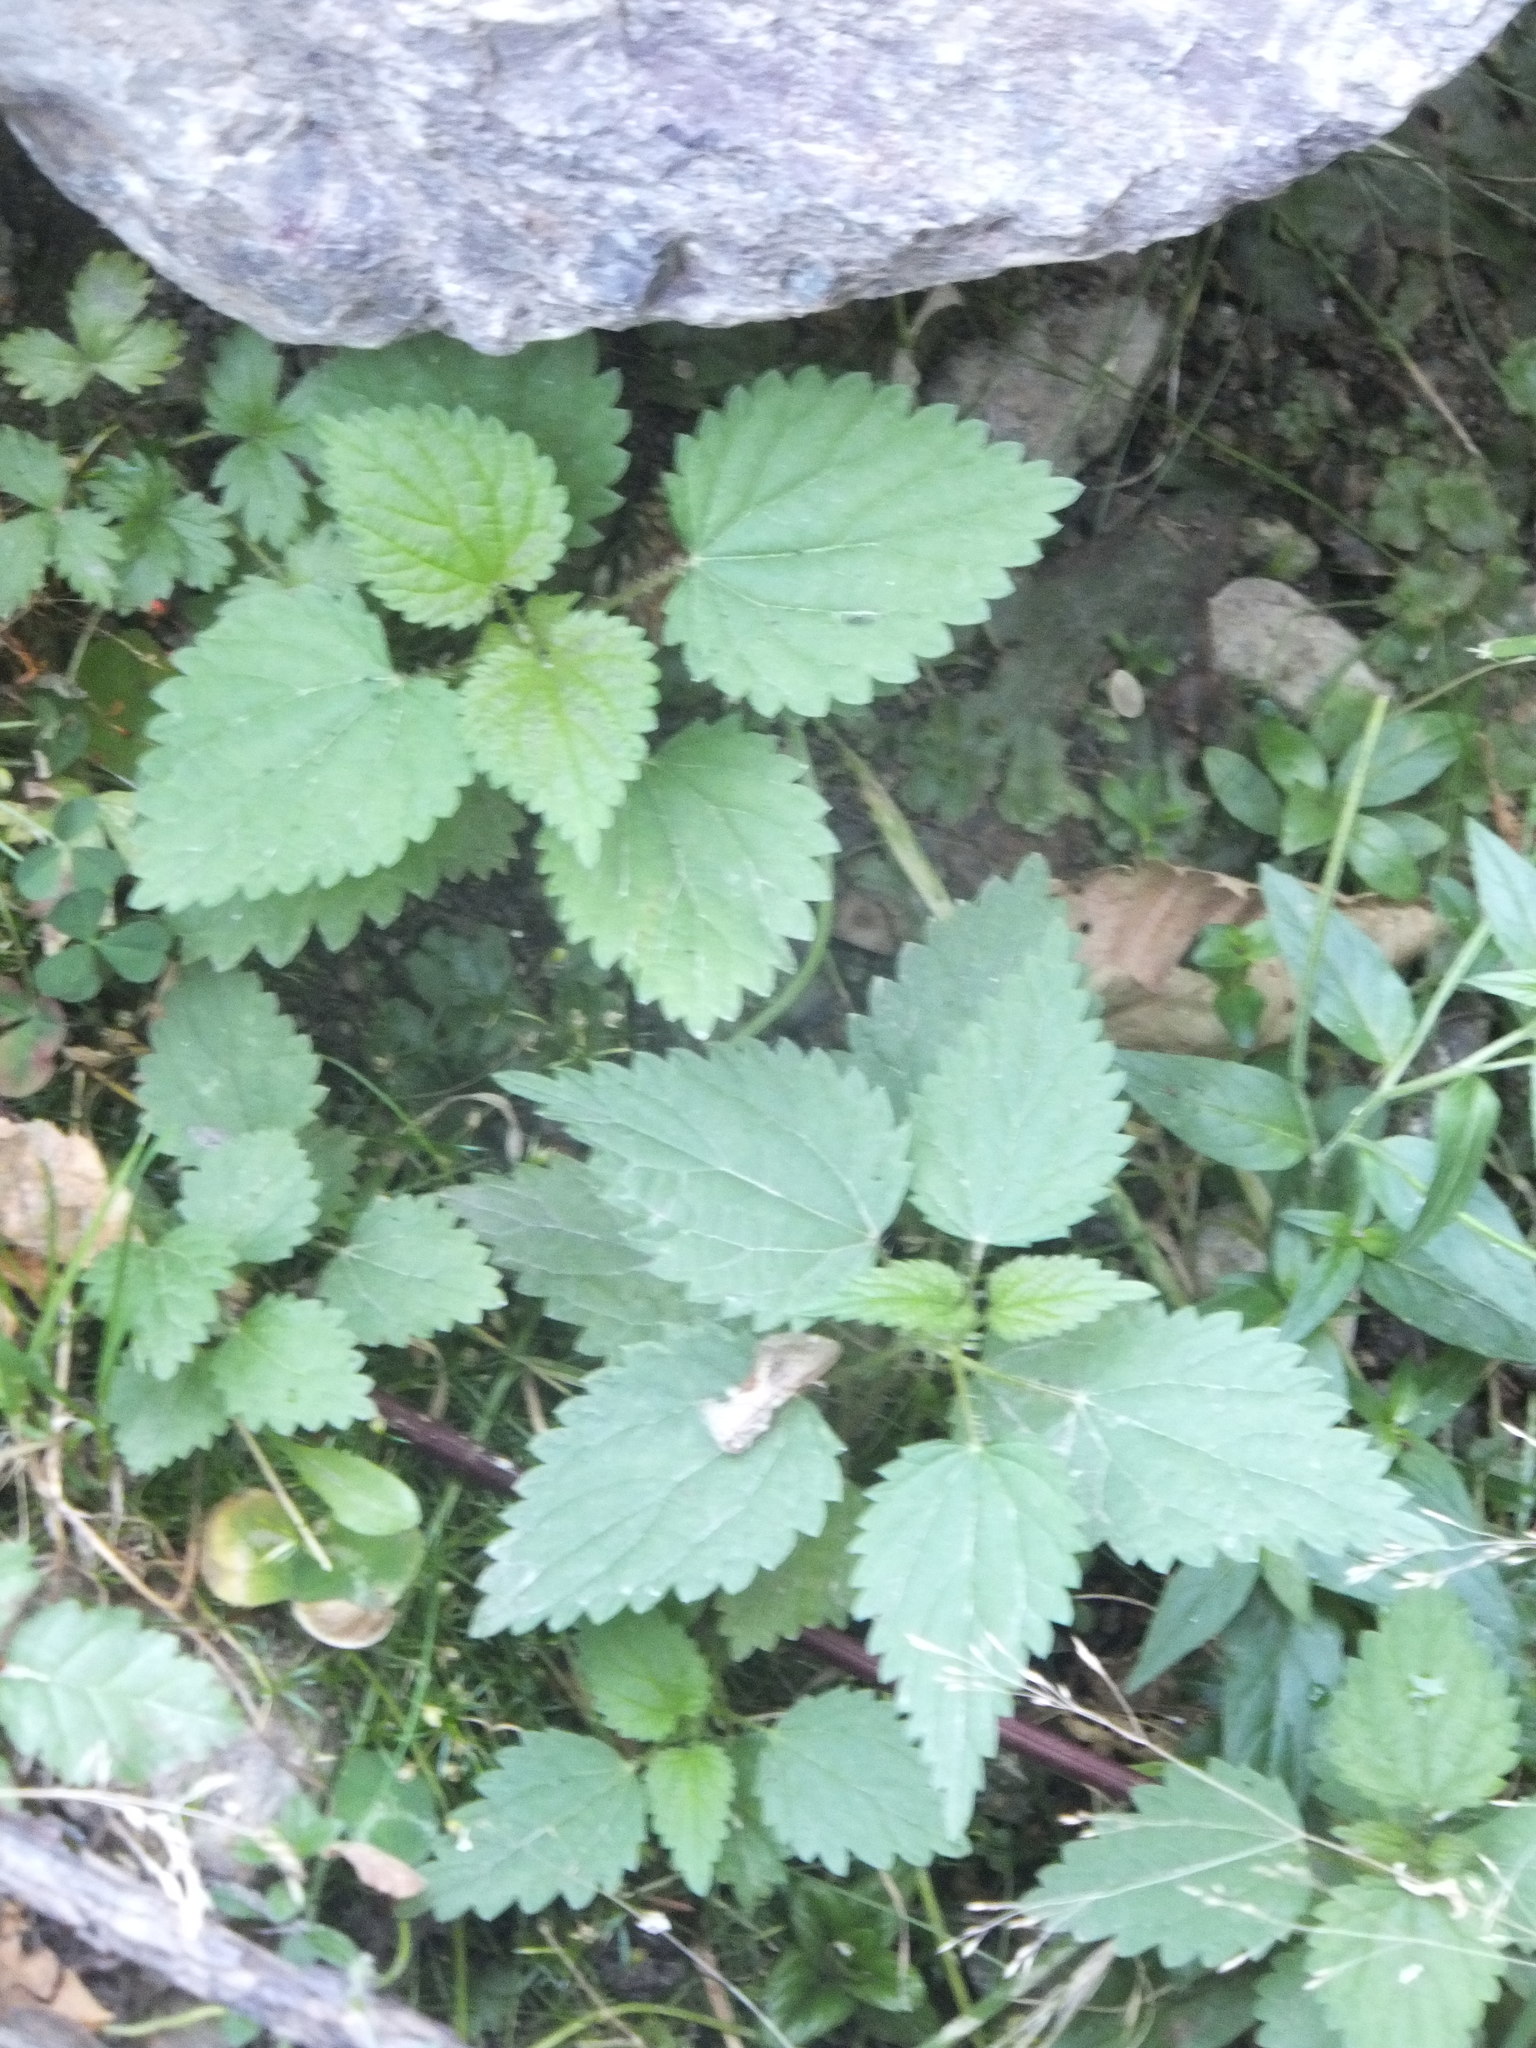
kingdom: Plantae
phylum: Tracheophyta
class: Magnoliopsida
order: Rosales
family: Urticaceae
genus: Urtica
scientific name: Urtica dioica
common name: Common nettle
